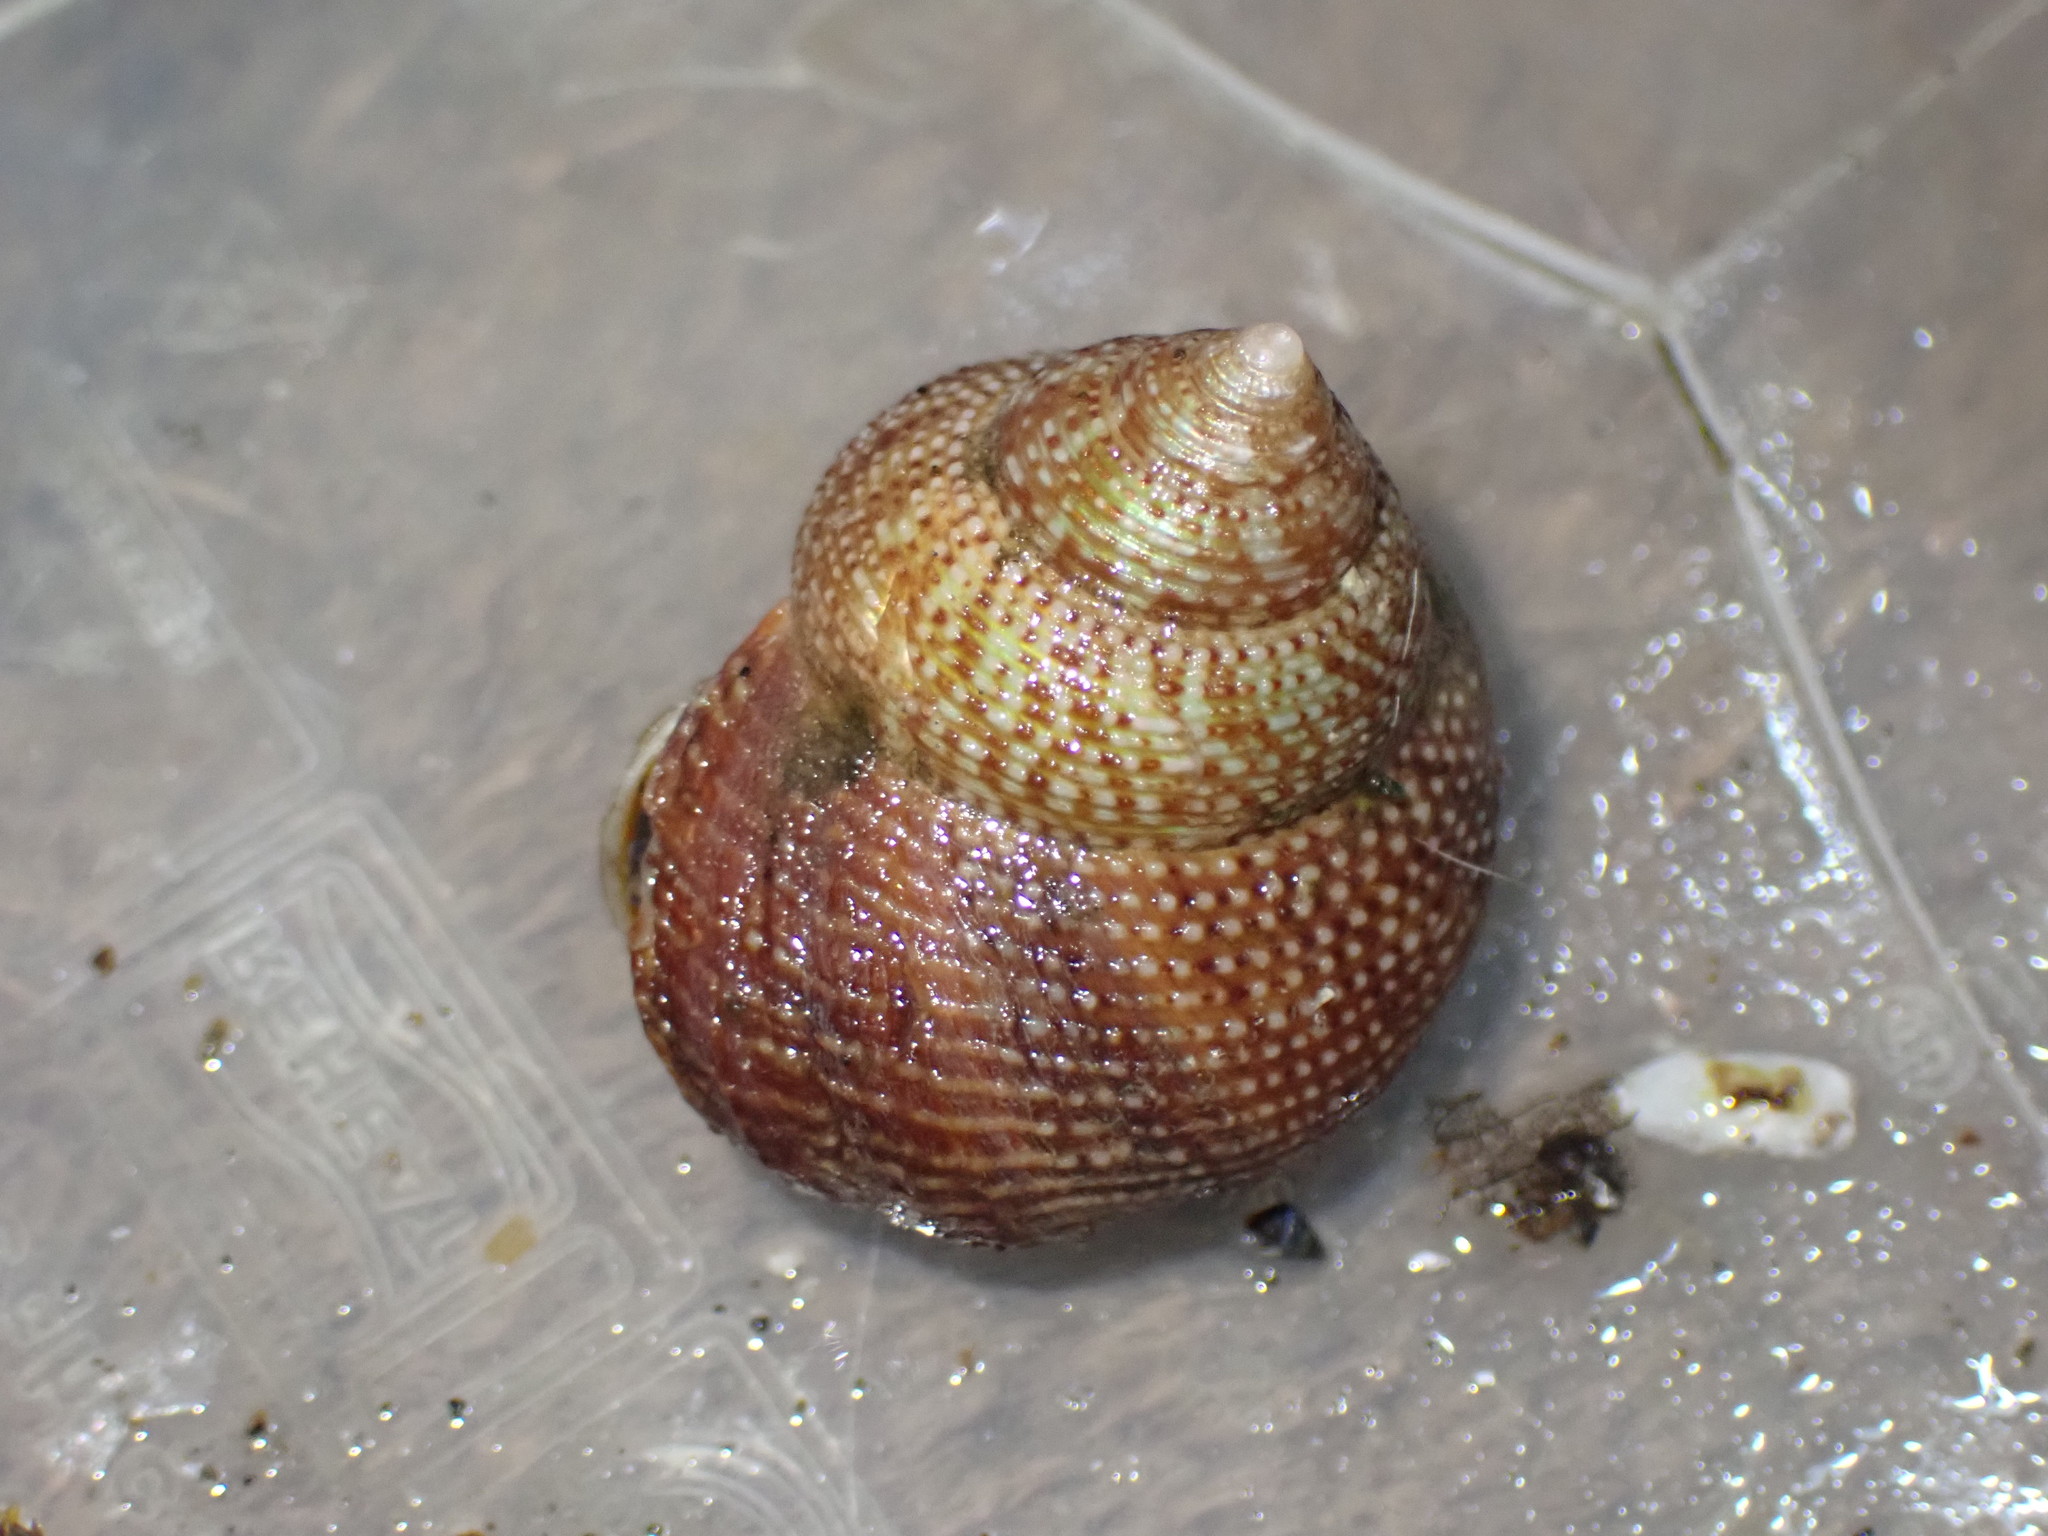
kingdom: Animalia
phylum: Mollusca
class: Gastropoda
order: Trochida
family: Calliostomatidae
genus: Maurea
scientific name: Maurea punctulata
